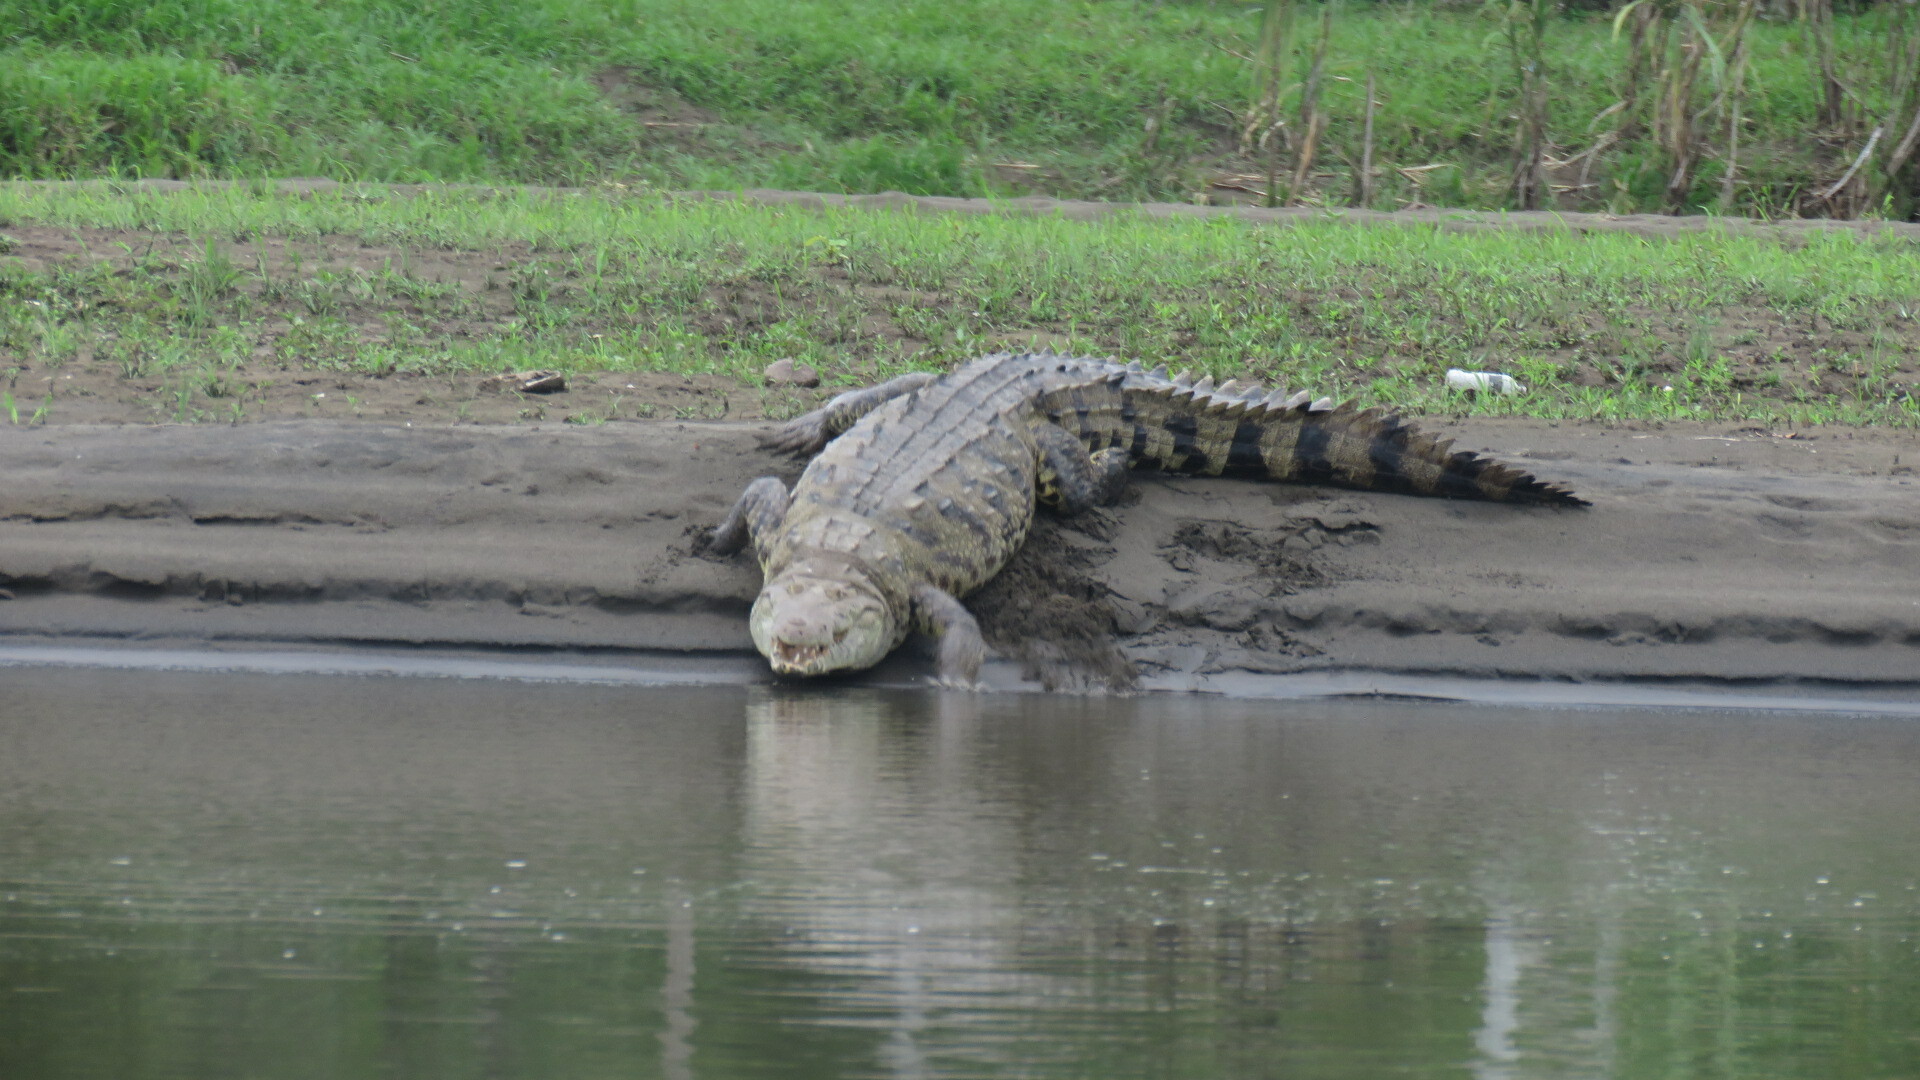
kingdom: Animalia
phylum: Chordata
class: Crocodylia
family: Crocodylidae
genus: Crocodylus
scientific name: Crocodylus acutus
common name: American crocodile
